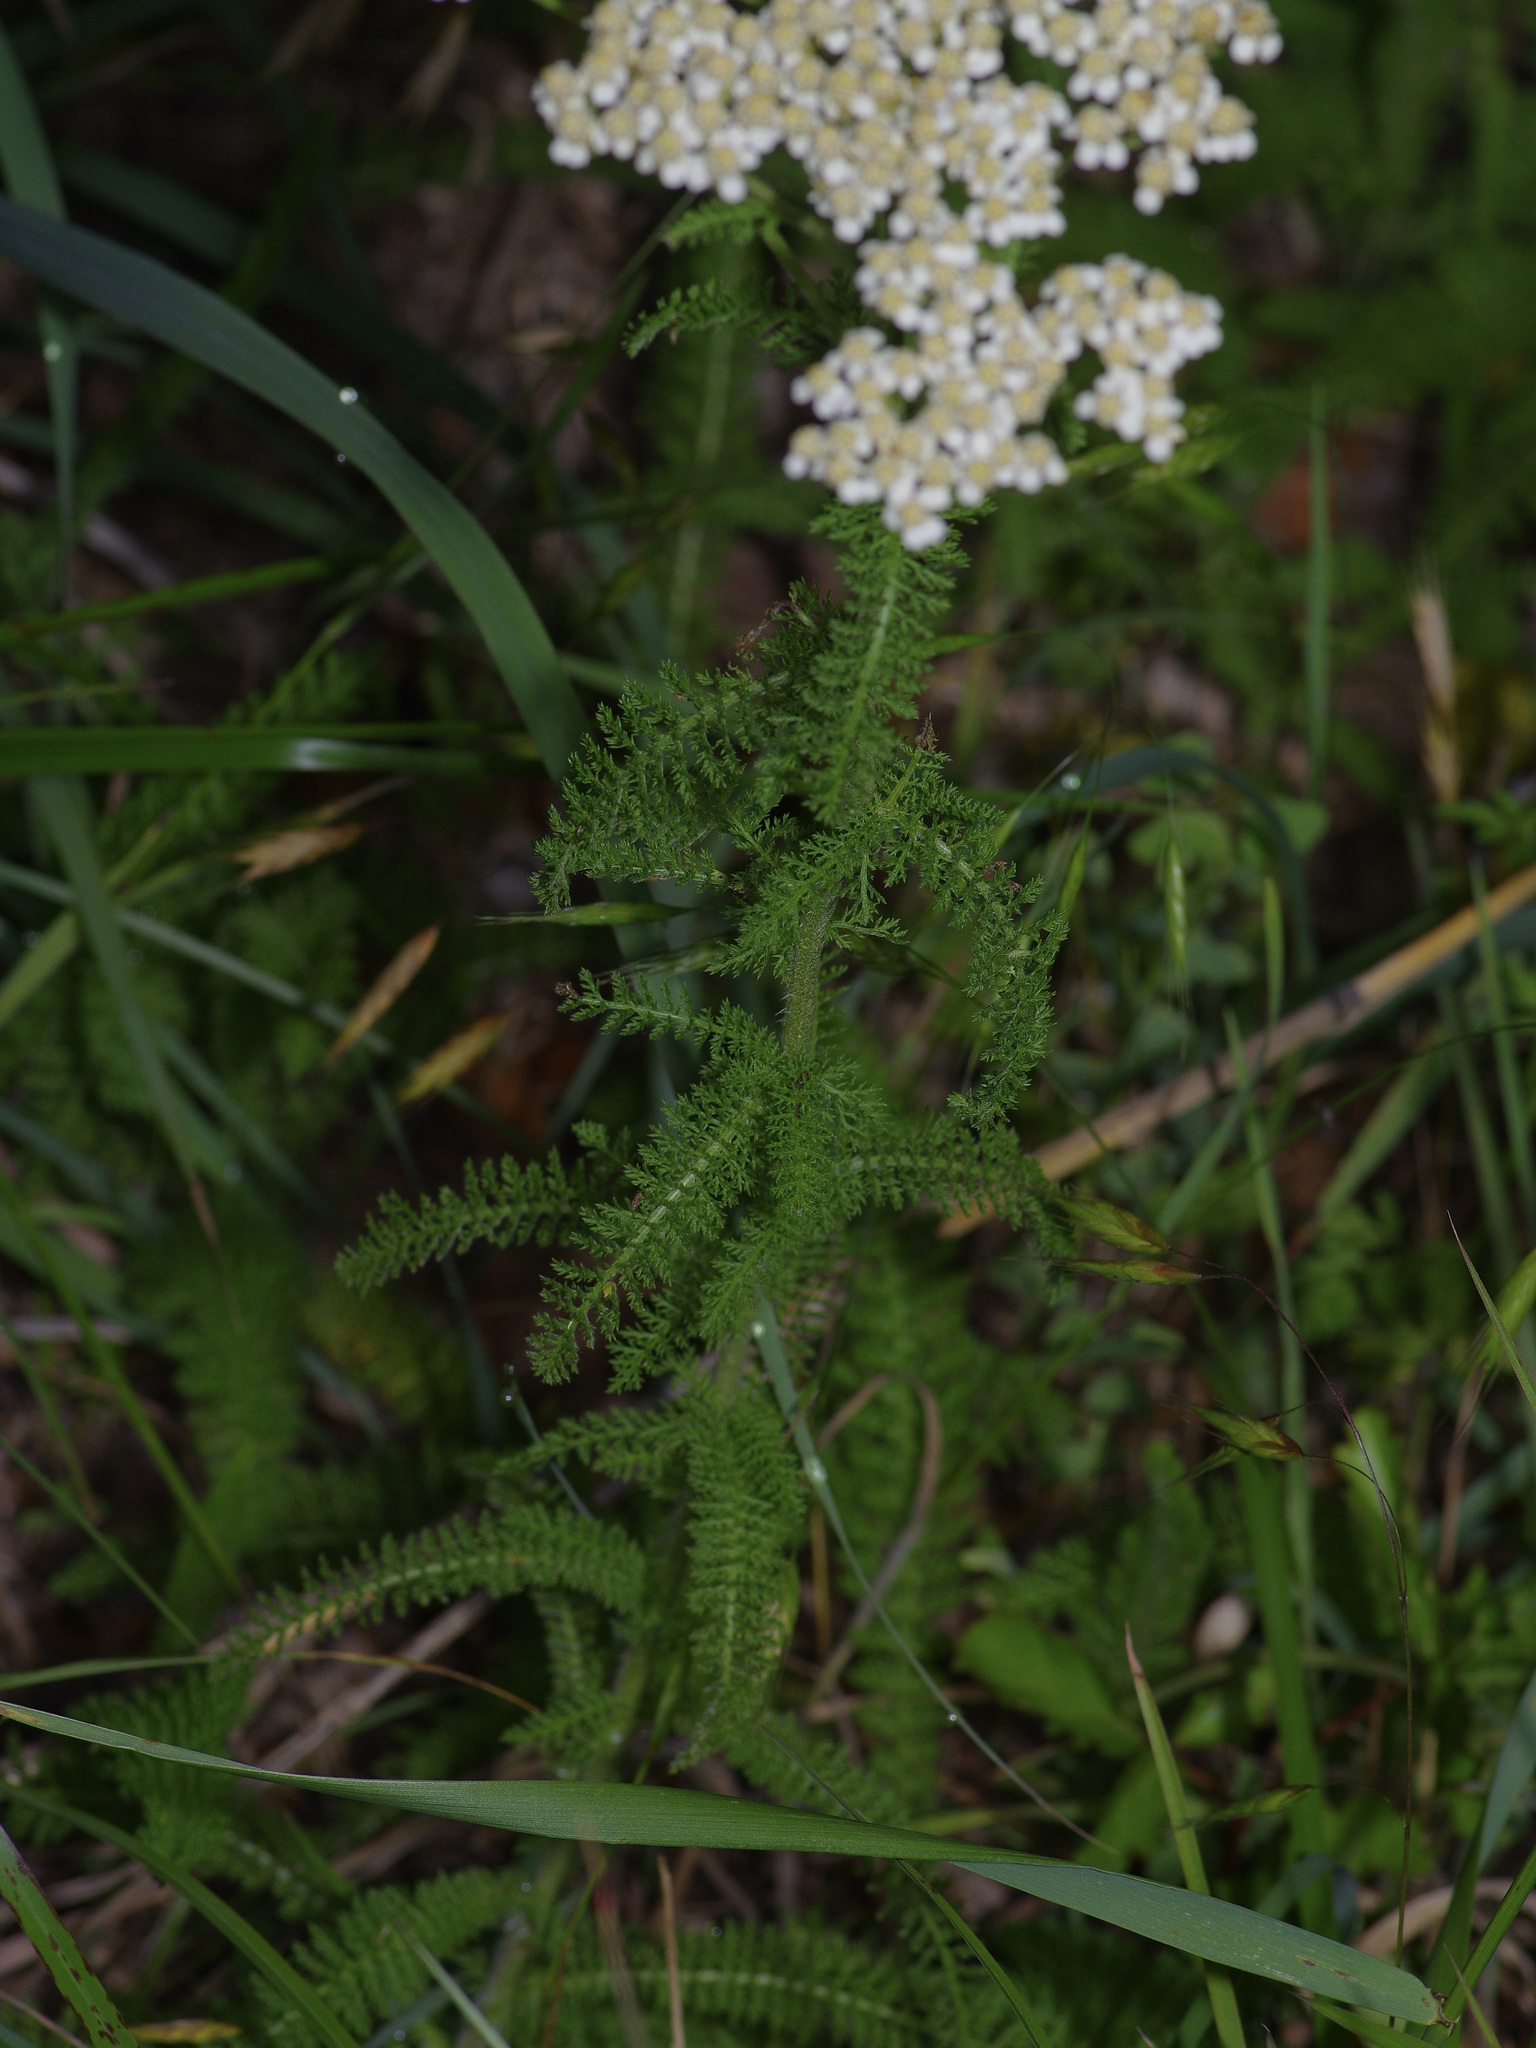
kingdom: Plantae
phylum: Tracheophyta
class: Magnoliopsida
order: Asterales
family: Asteraceae
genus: Achillea
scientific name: Achillea millefolium
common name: Yarrow
